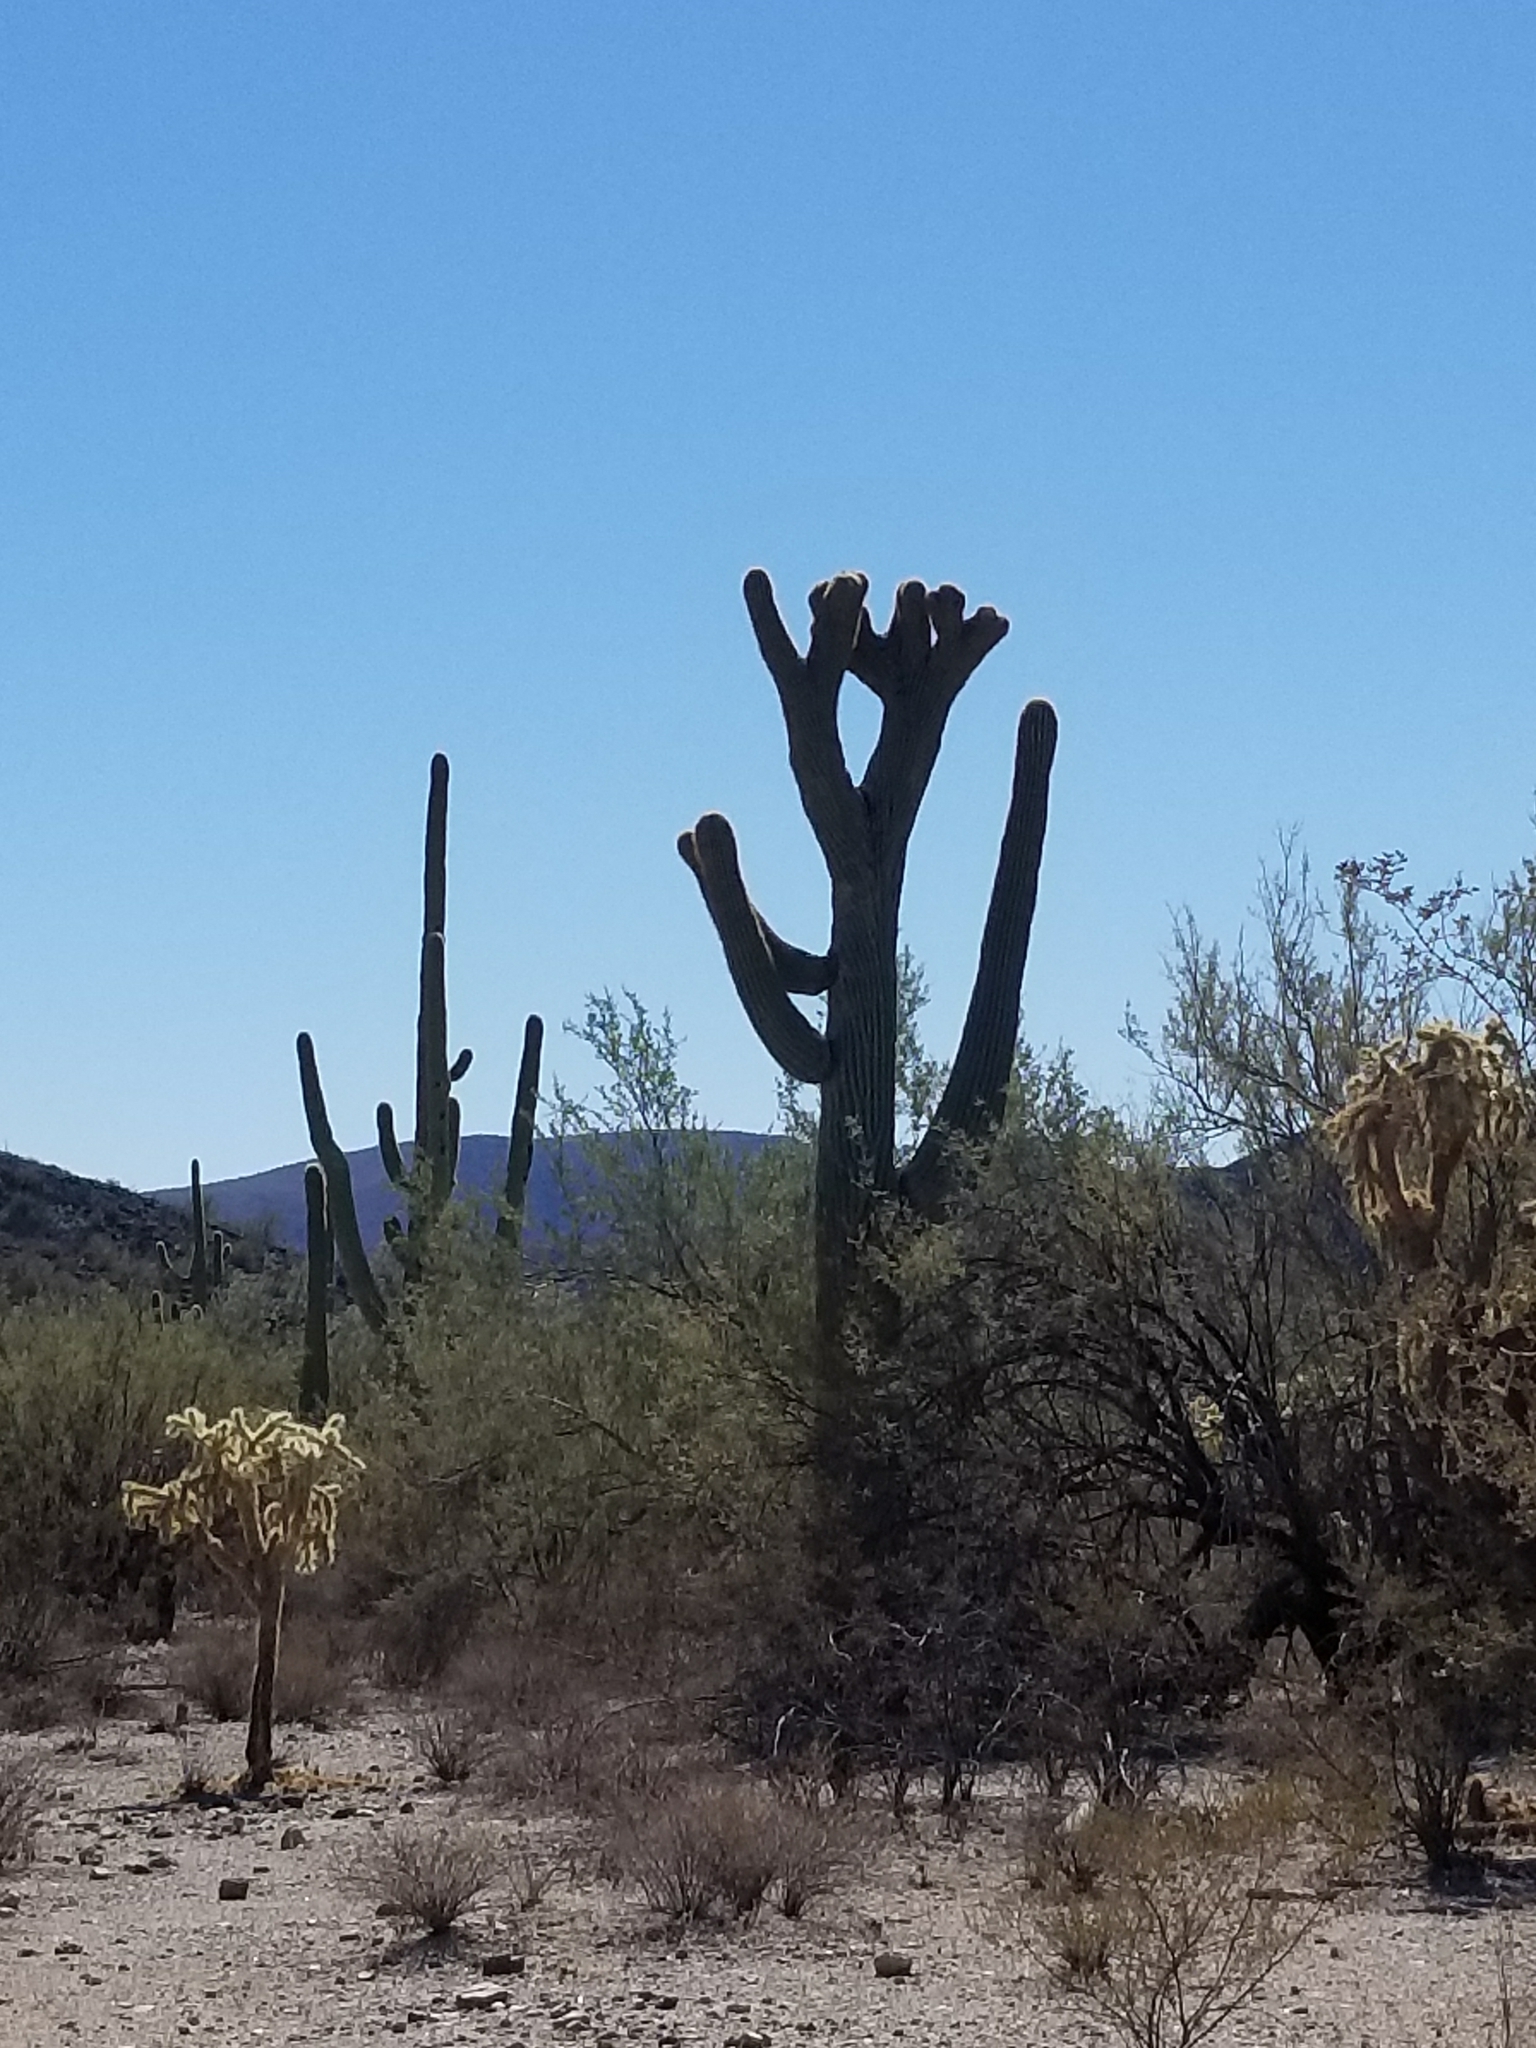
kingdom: Plantae
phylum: Tracheophyta
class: Magnoliopsida
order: Caryophyllales
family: Cactaceae
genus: Carnegiea
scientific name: Carnegiea gigantea
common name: Saguaro
